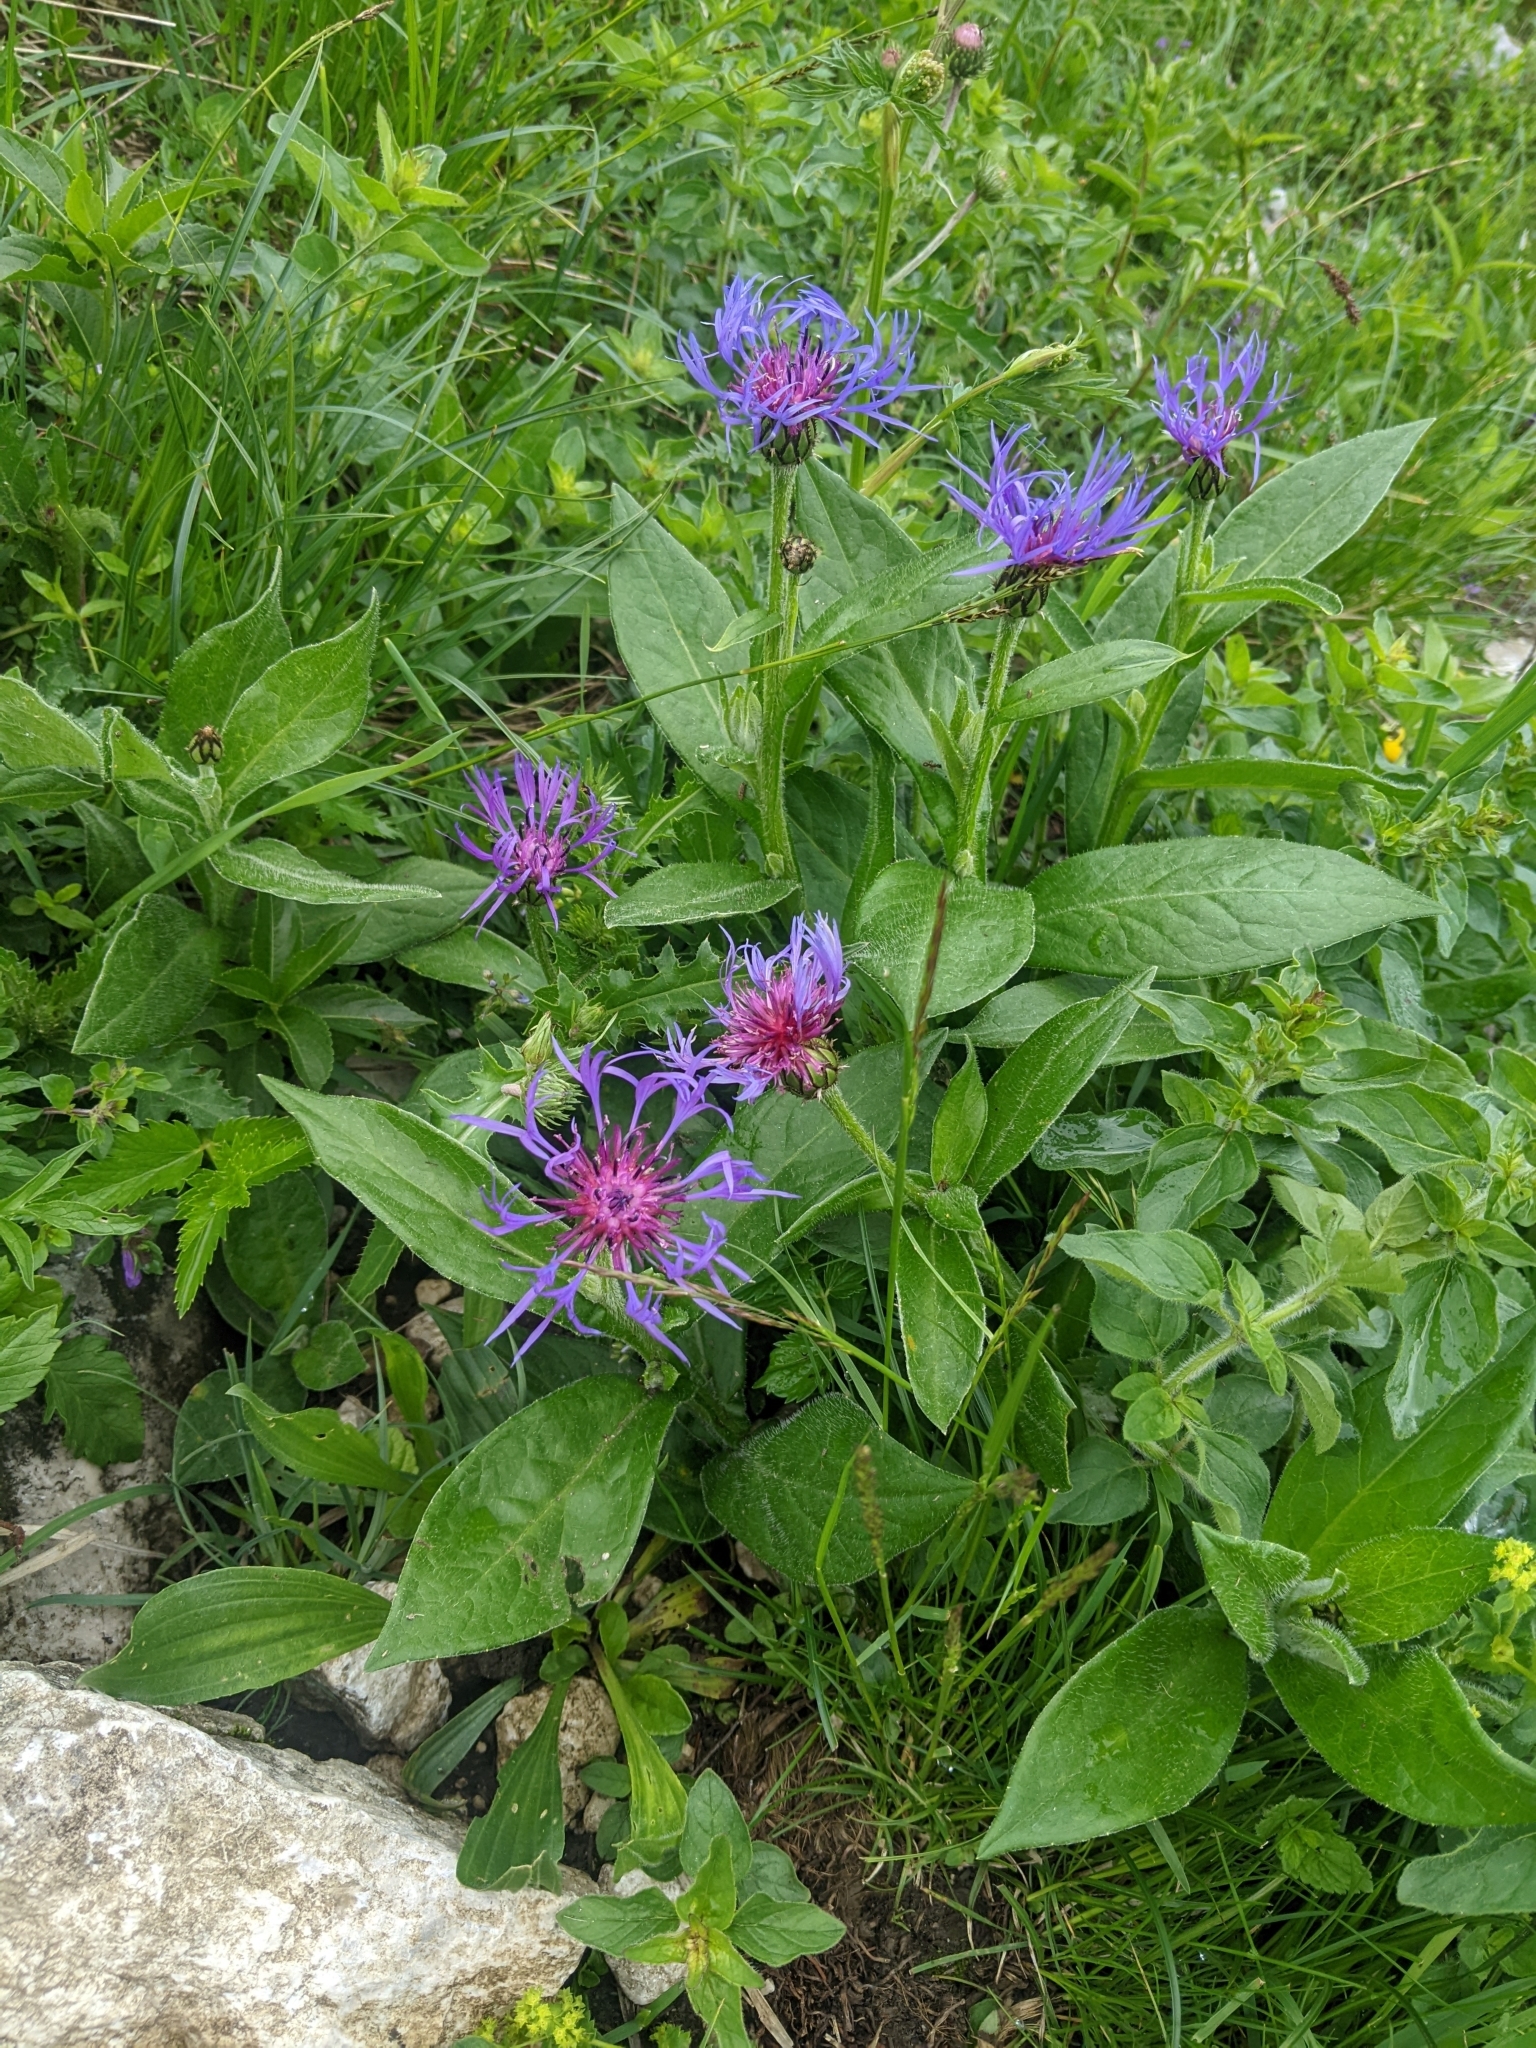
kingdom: Plantae
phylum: Tracheophyta
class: Magnoliopsida
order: Asterales
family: Asteraceae
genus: Centaurea
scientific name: Centaurea montana
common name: Perennial cornflower
